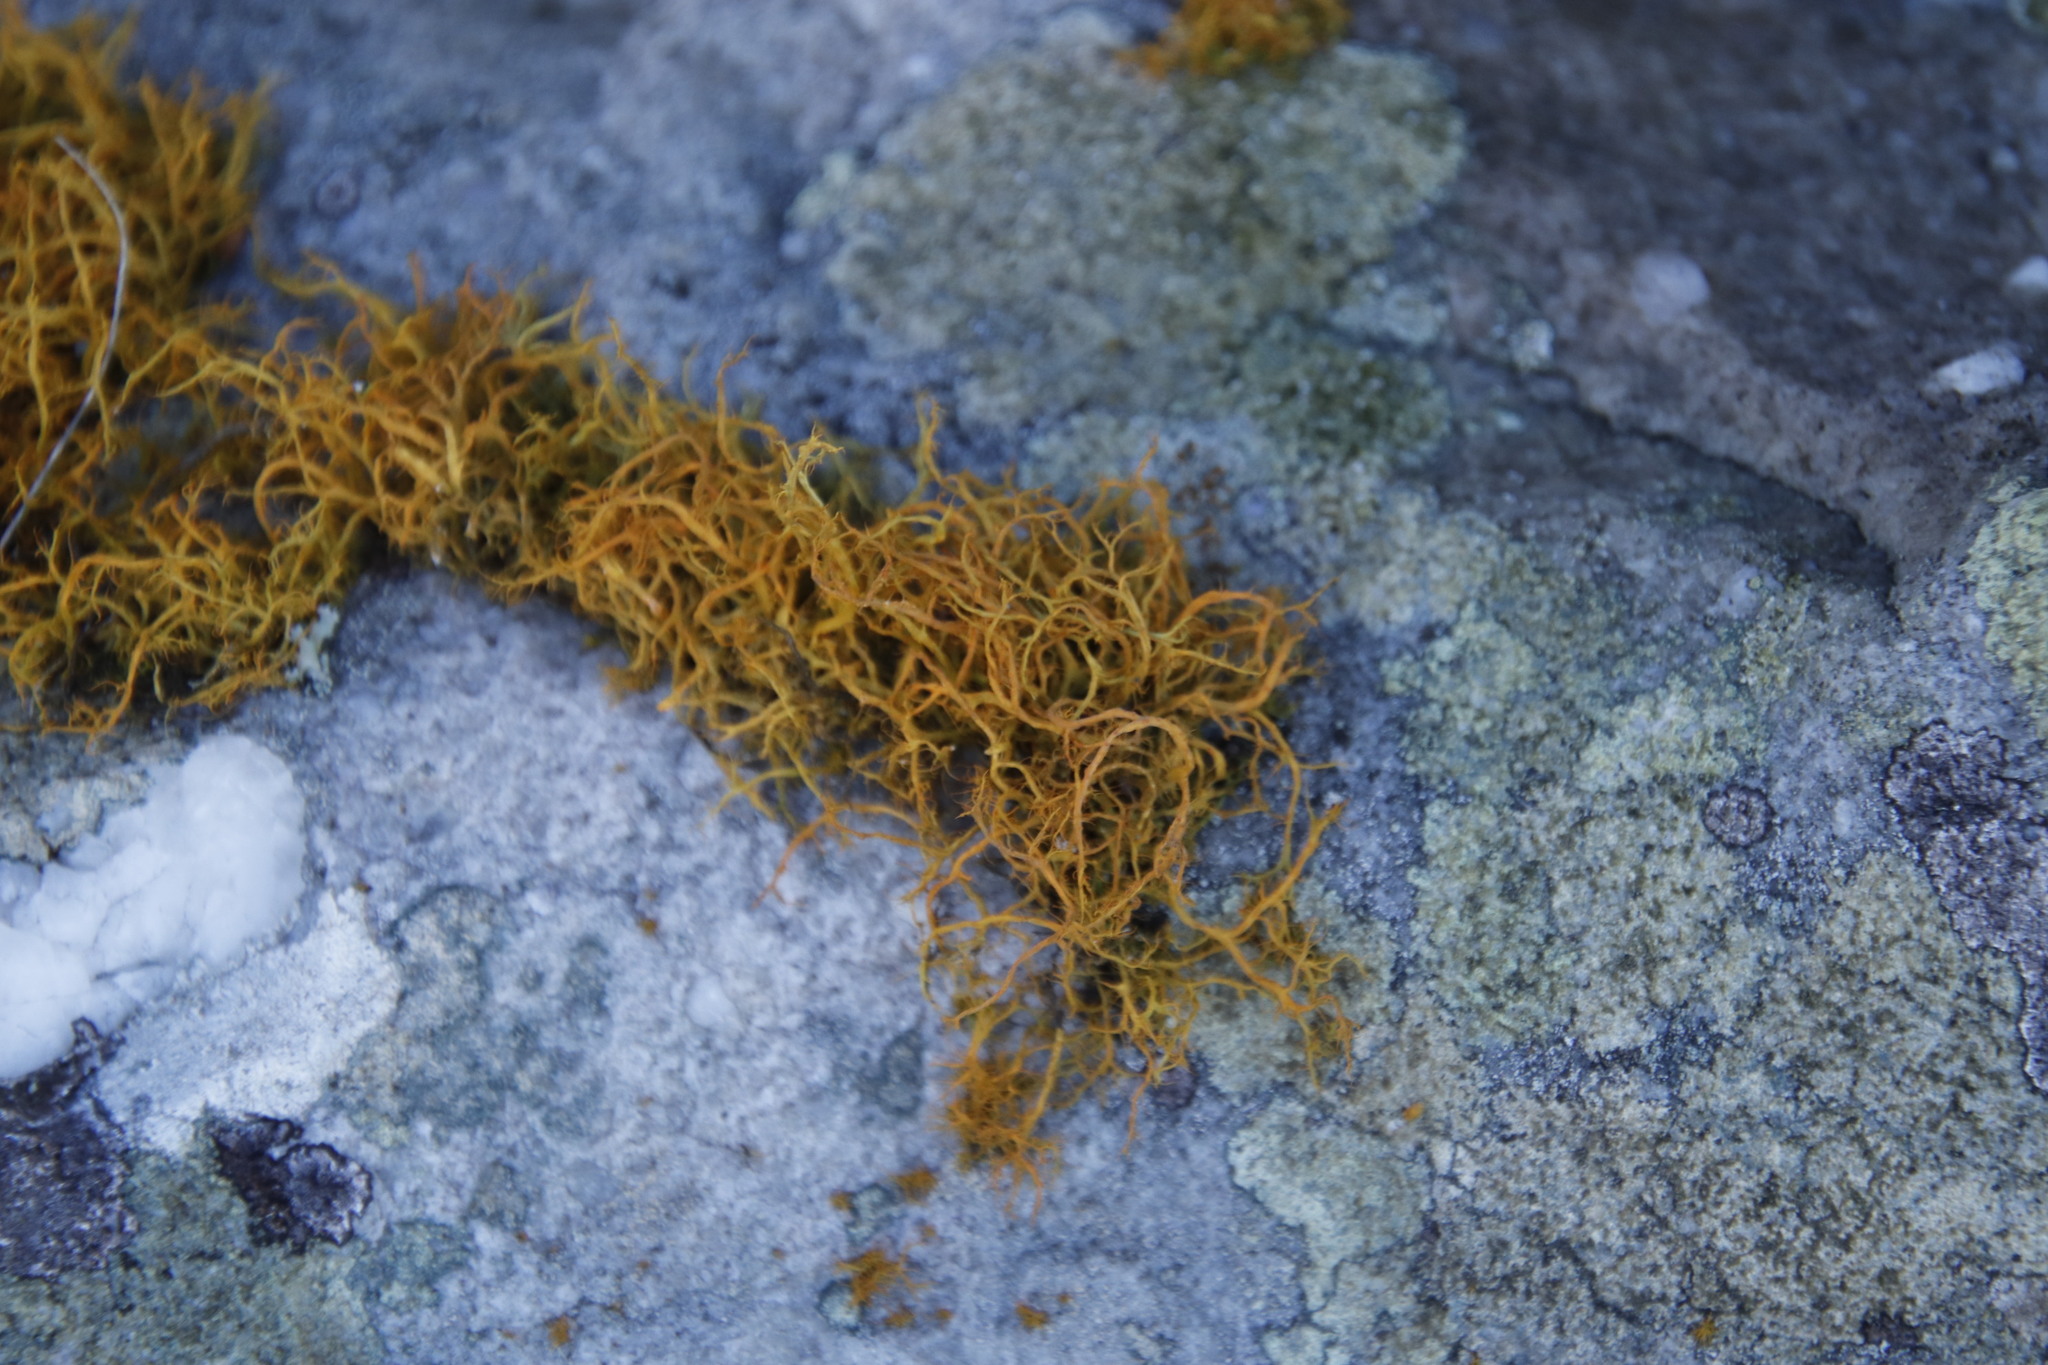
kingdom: Fungi
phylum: Ascomycota
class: Lecanoromycetes
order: Teloschistales
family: Teloschistaceae
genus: Teloschistes
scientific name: Teloschistes capensis
